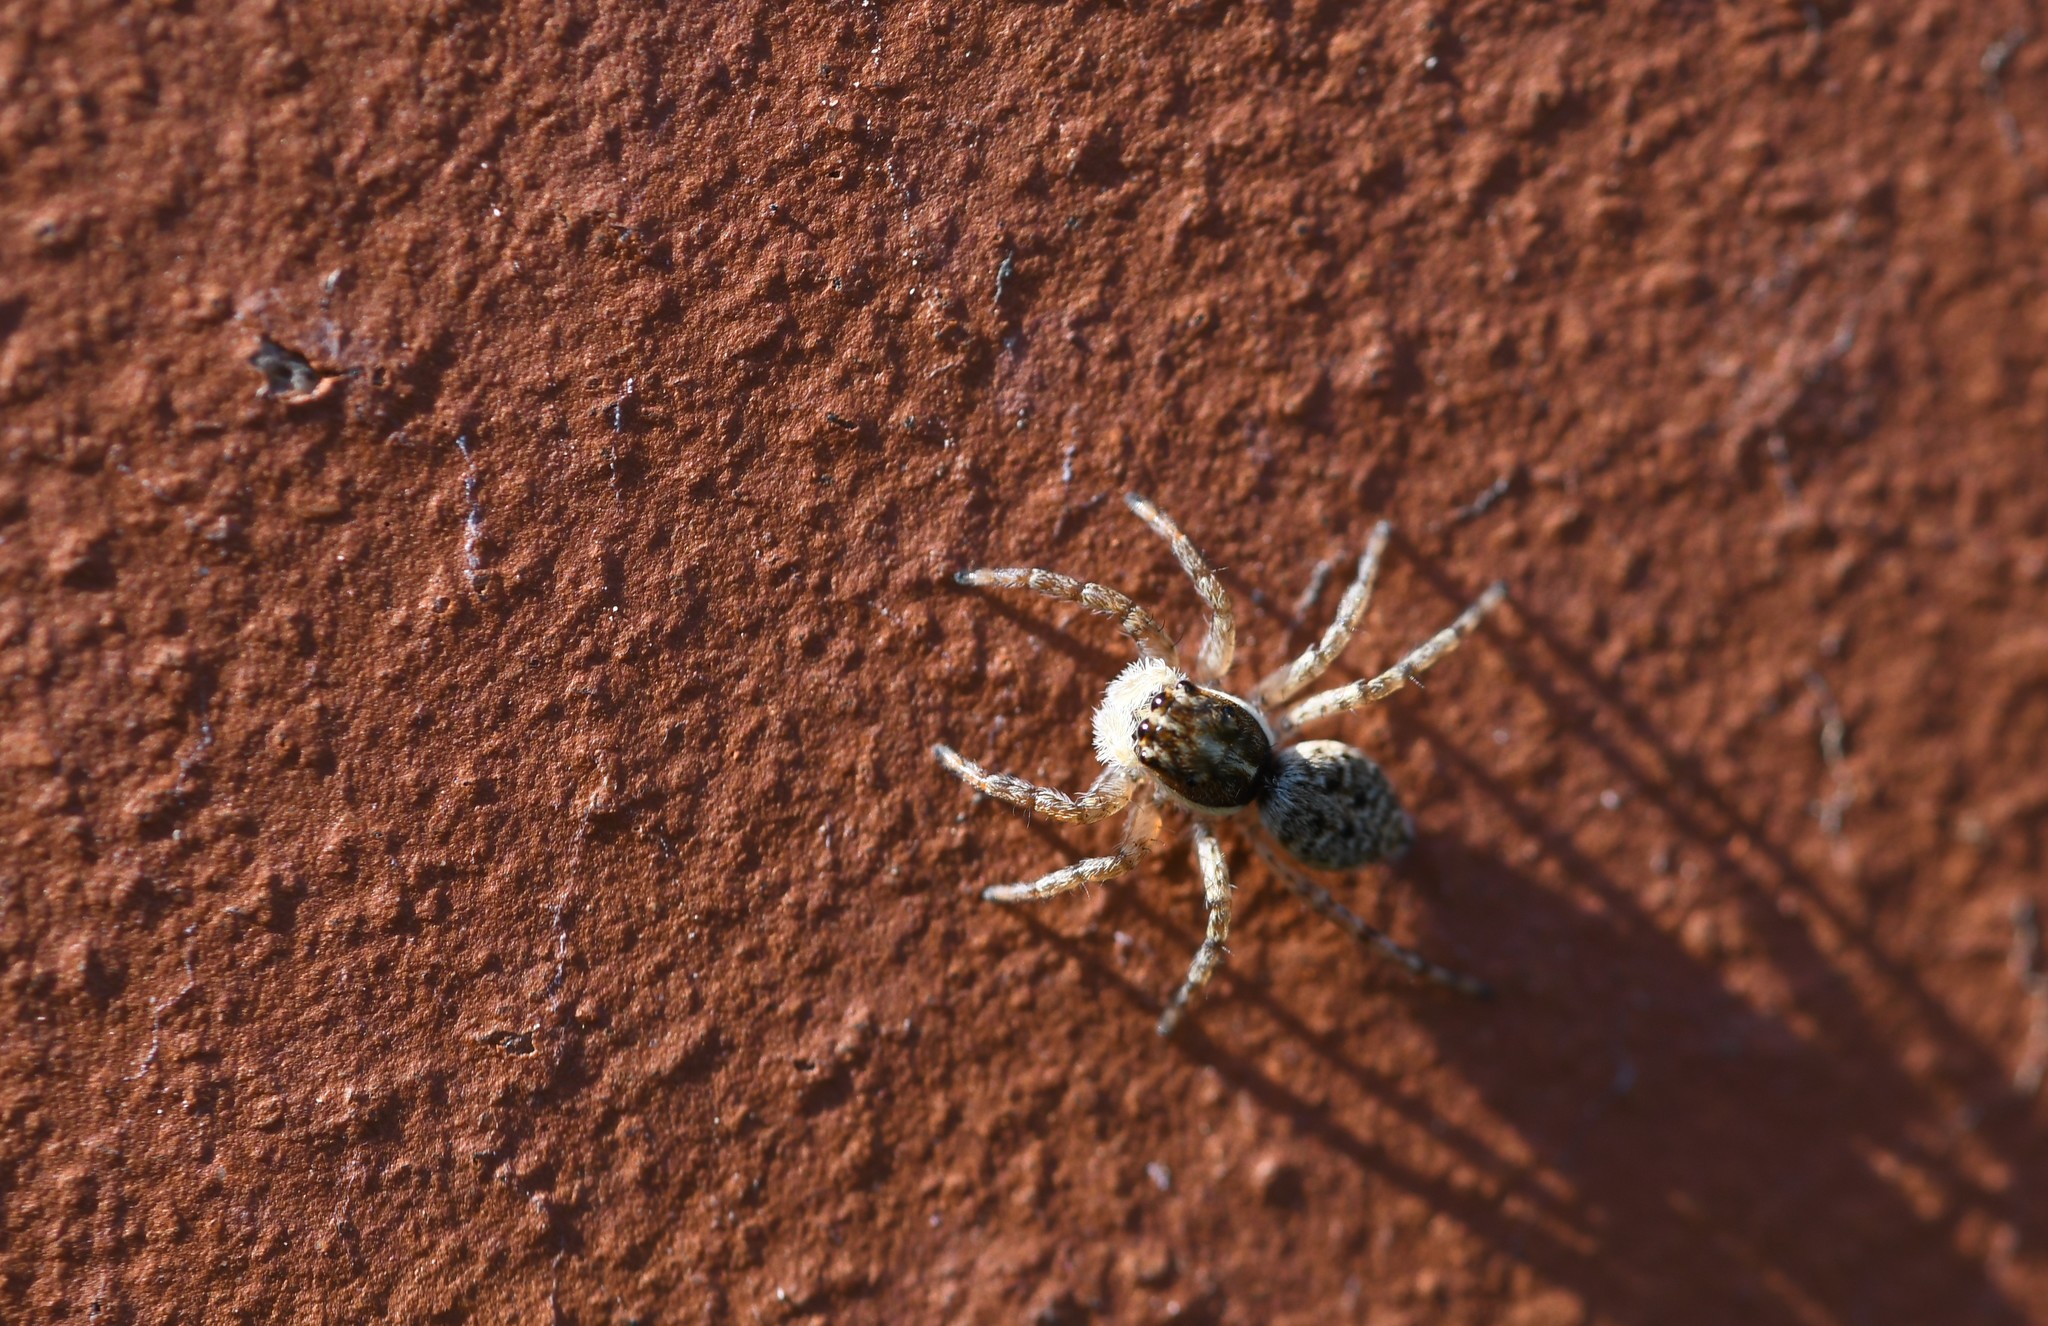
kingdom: Animalia
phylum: Arthropoda
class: Arachnida
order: Araneae
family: Salticidae
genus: Menemerus
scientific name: Menemerus semilimbatus
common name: Jumping spider
